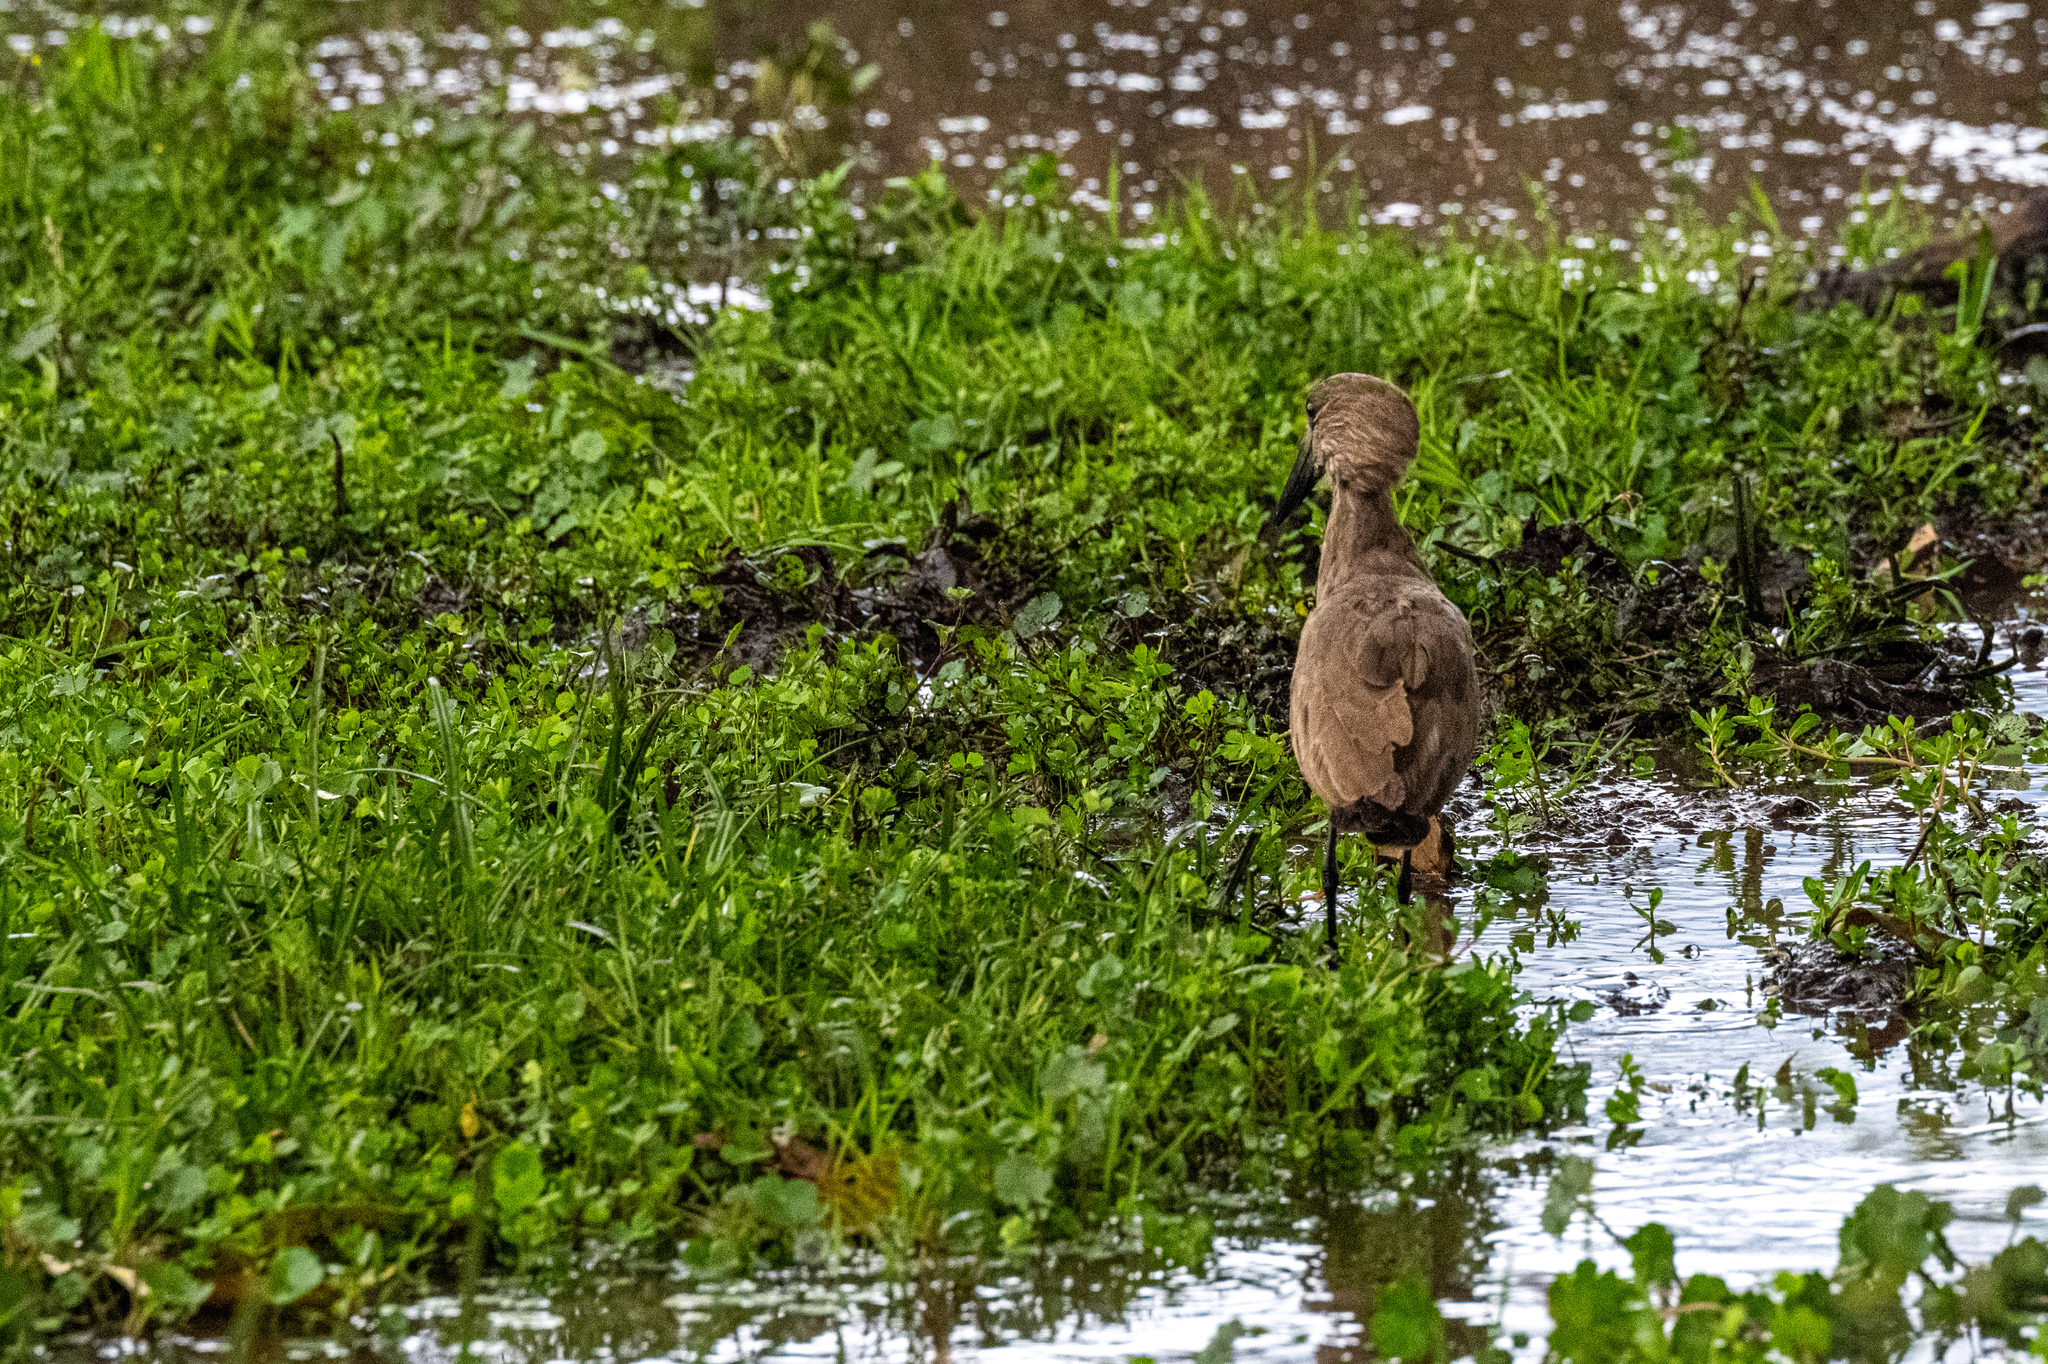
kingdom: Animalia
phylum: Chordata
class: Aves
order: Pelecaniformes
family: Scopidae
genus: Scopus
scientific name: Scopus umbretta
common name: Hamerkop
